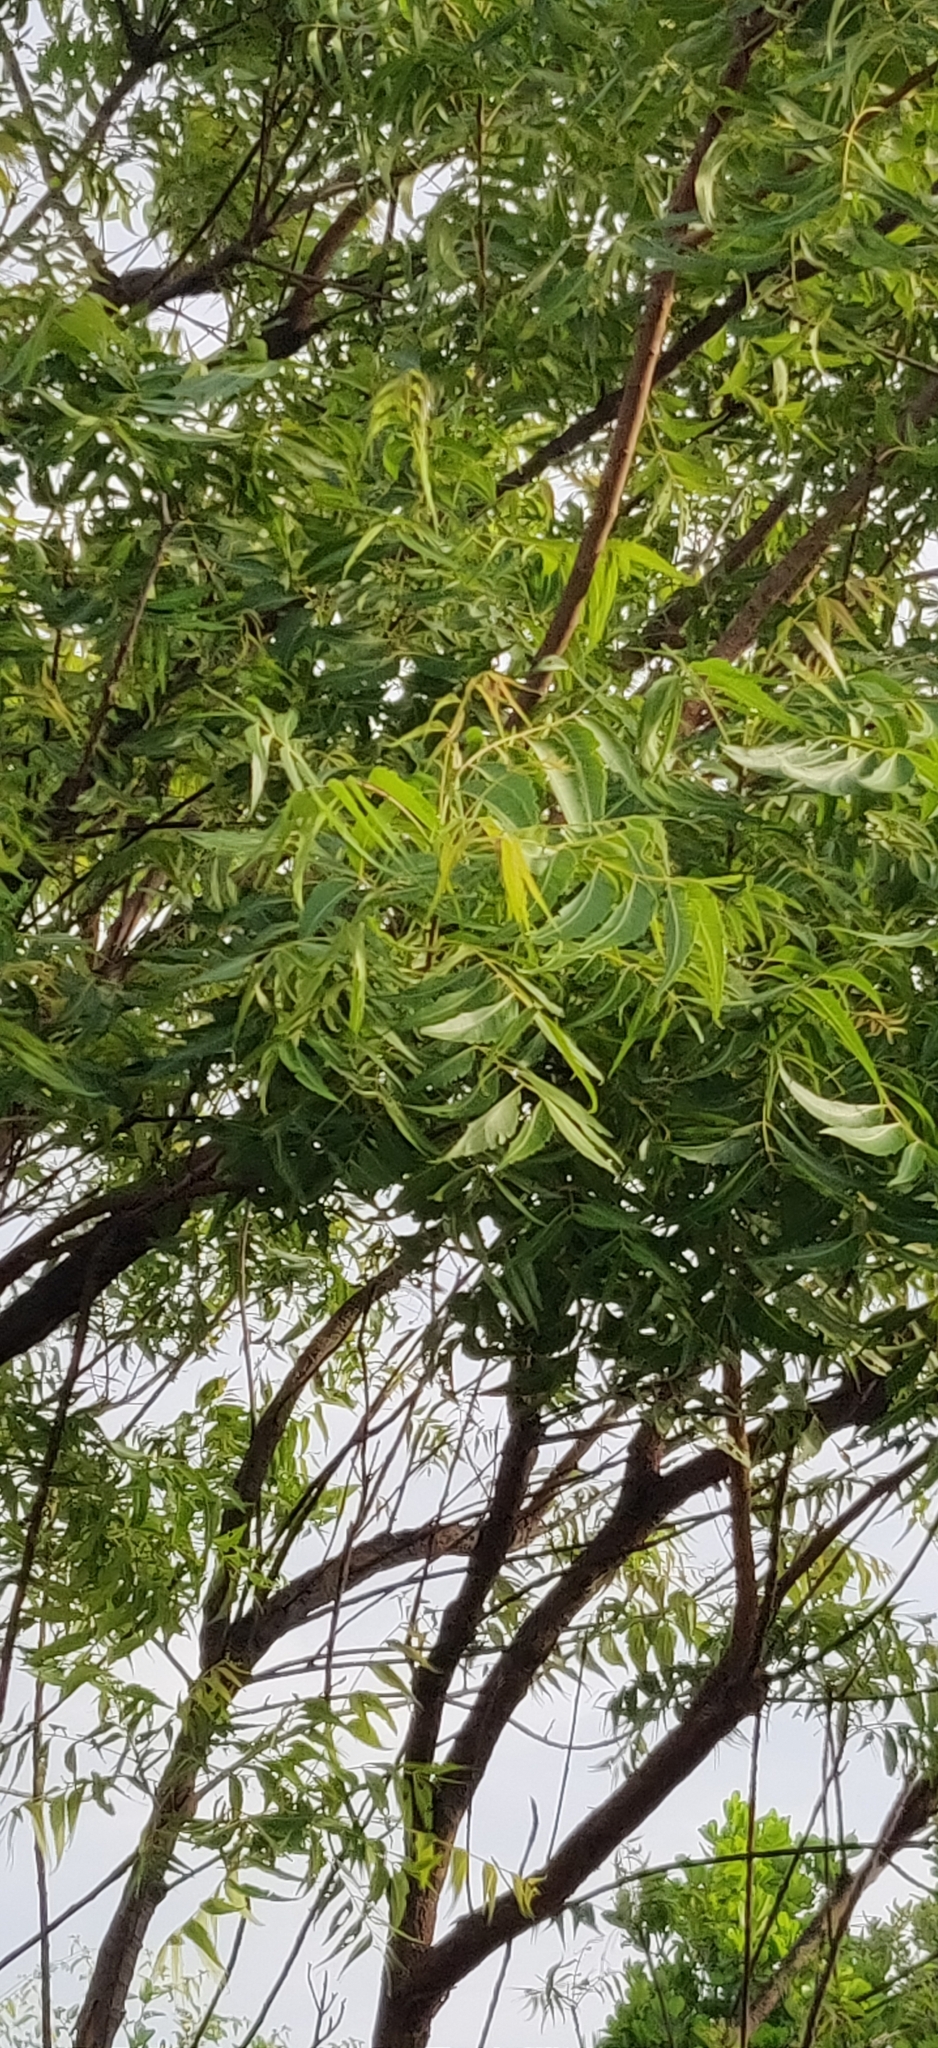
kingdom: Plantae
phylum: Tracheophyta
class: Magnoliopsida
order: Sapindales
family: Meliaceae
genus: Azadirachta
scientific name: Azadirachta indica
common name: Neem
